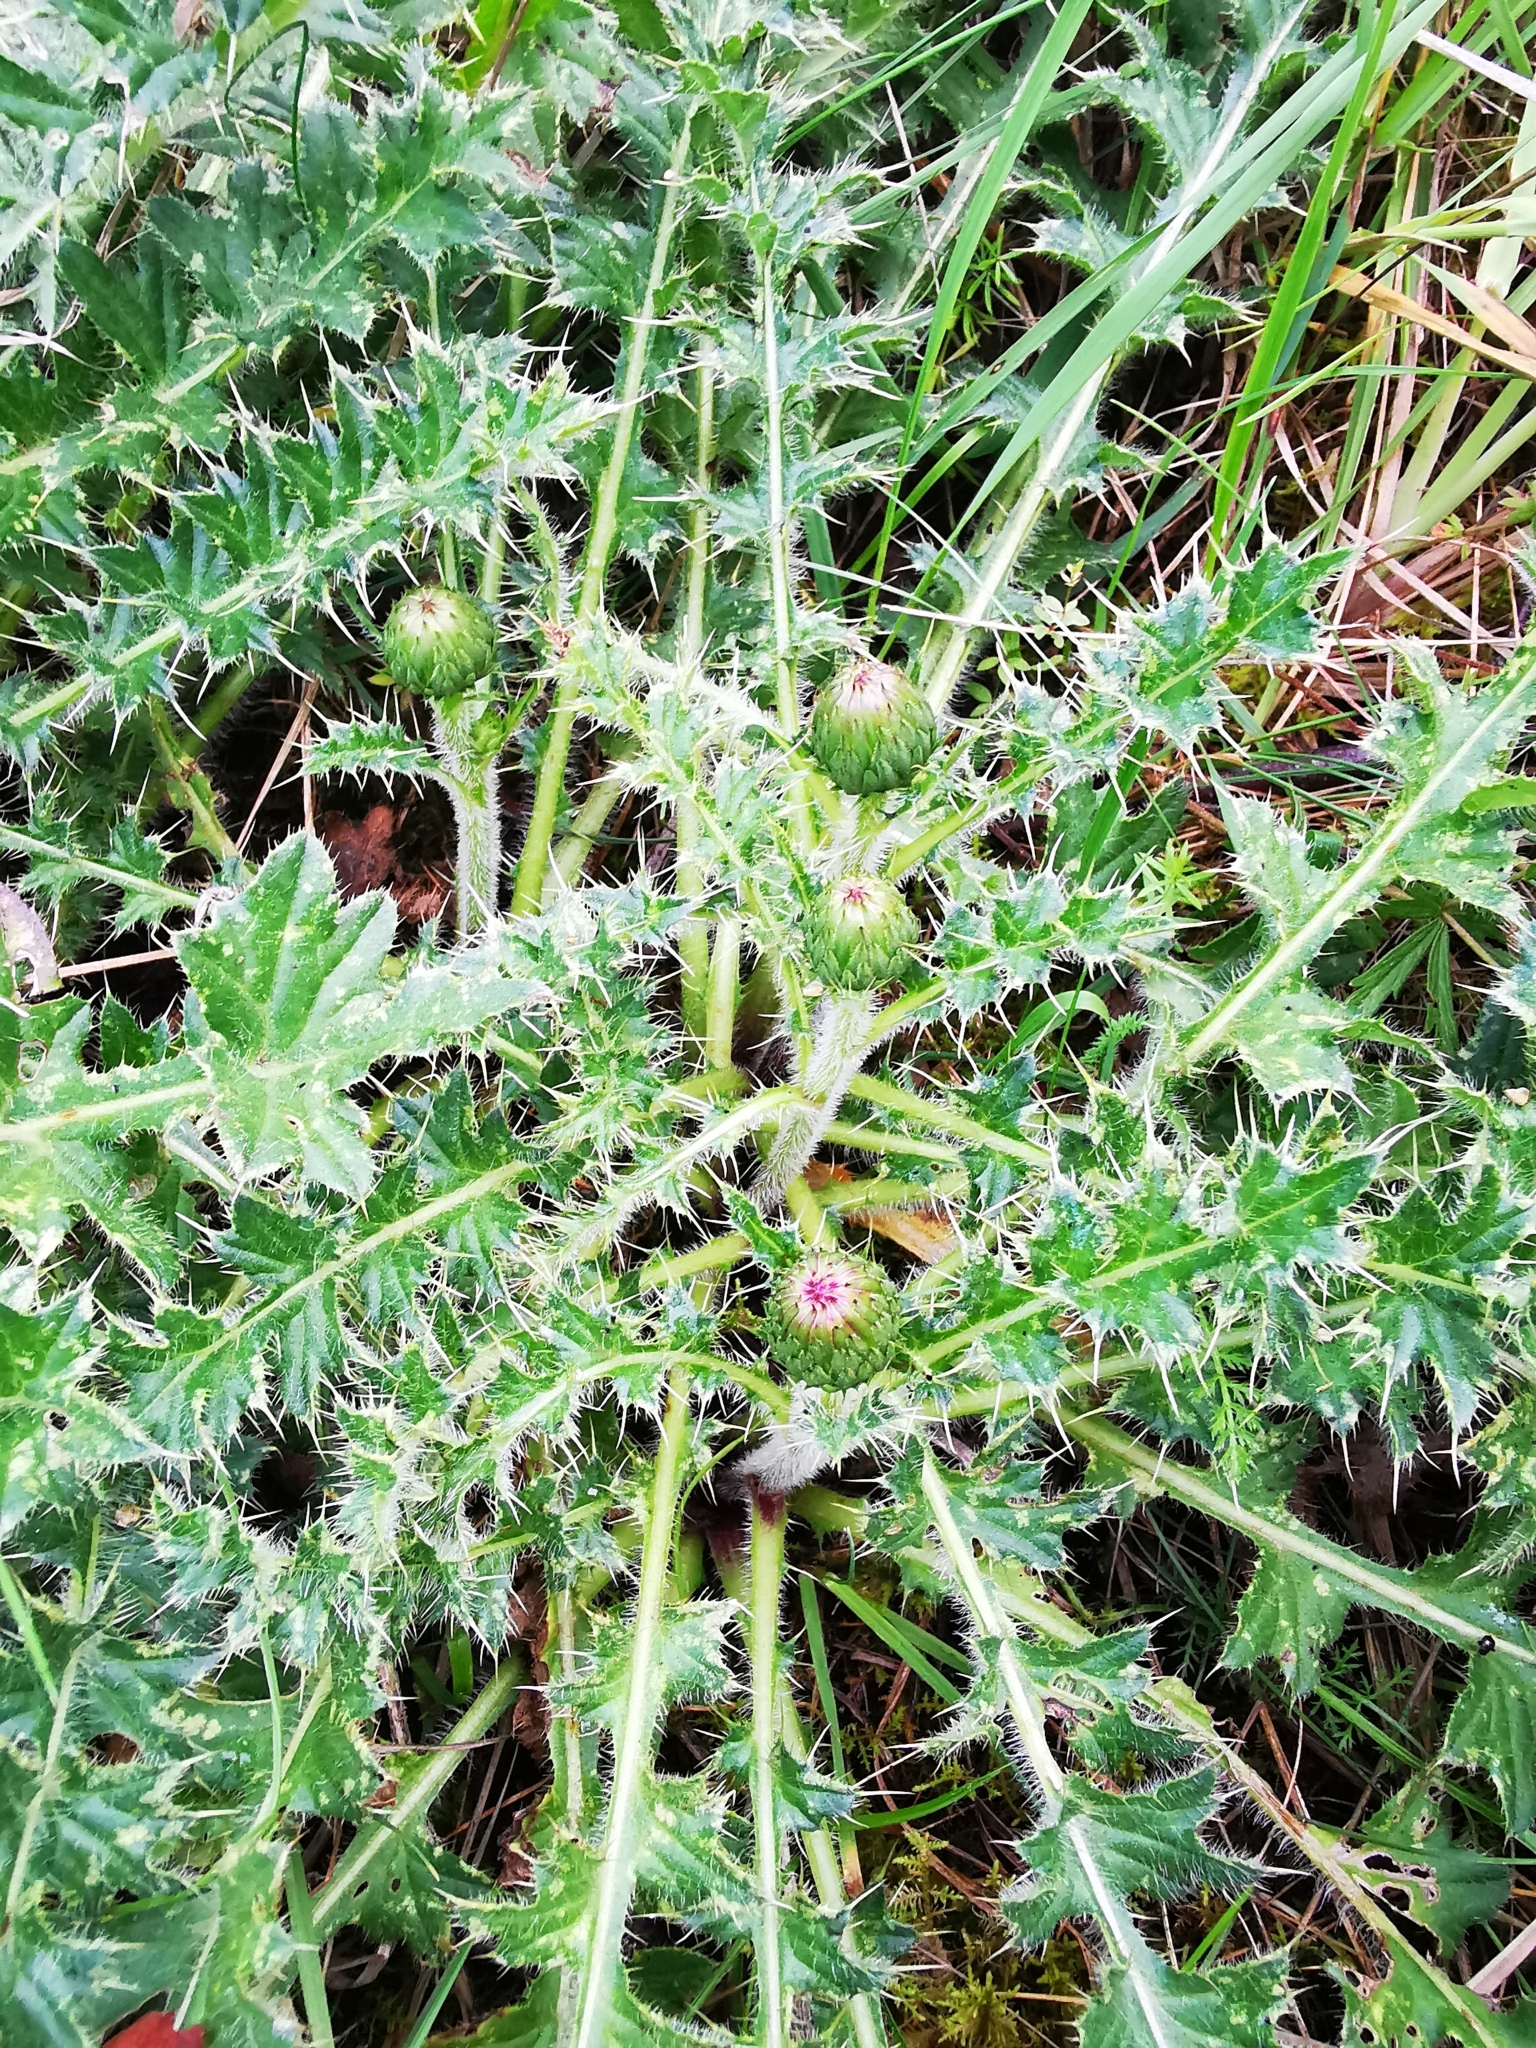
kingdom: Plantae
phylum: Tracheophyta
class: Magnoliopsida
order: Asterales
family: Asteraceae
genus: Cirsium
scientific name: Cirsium acaulon
